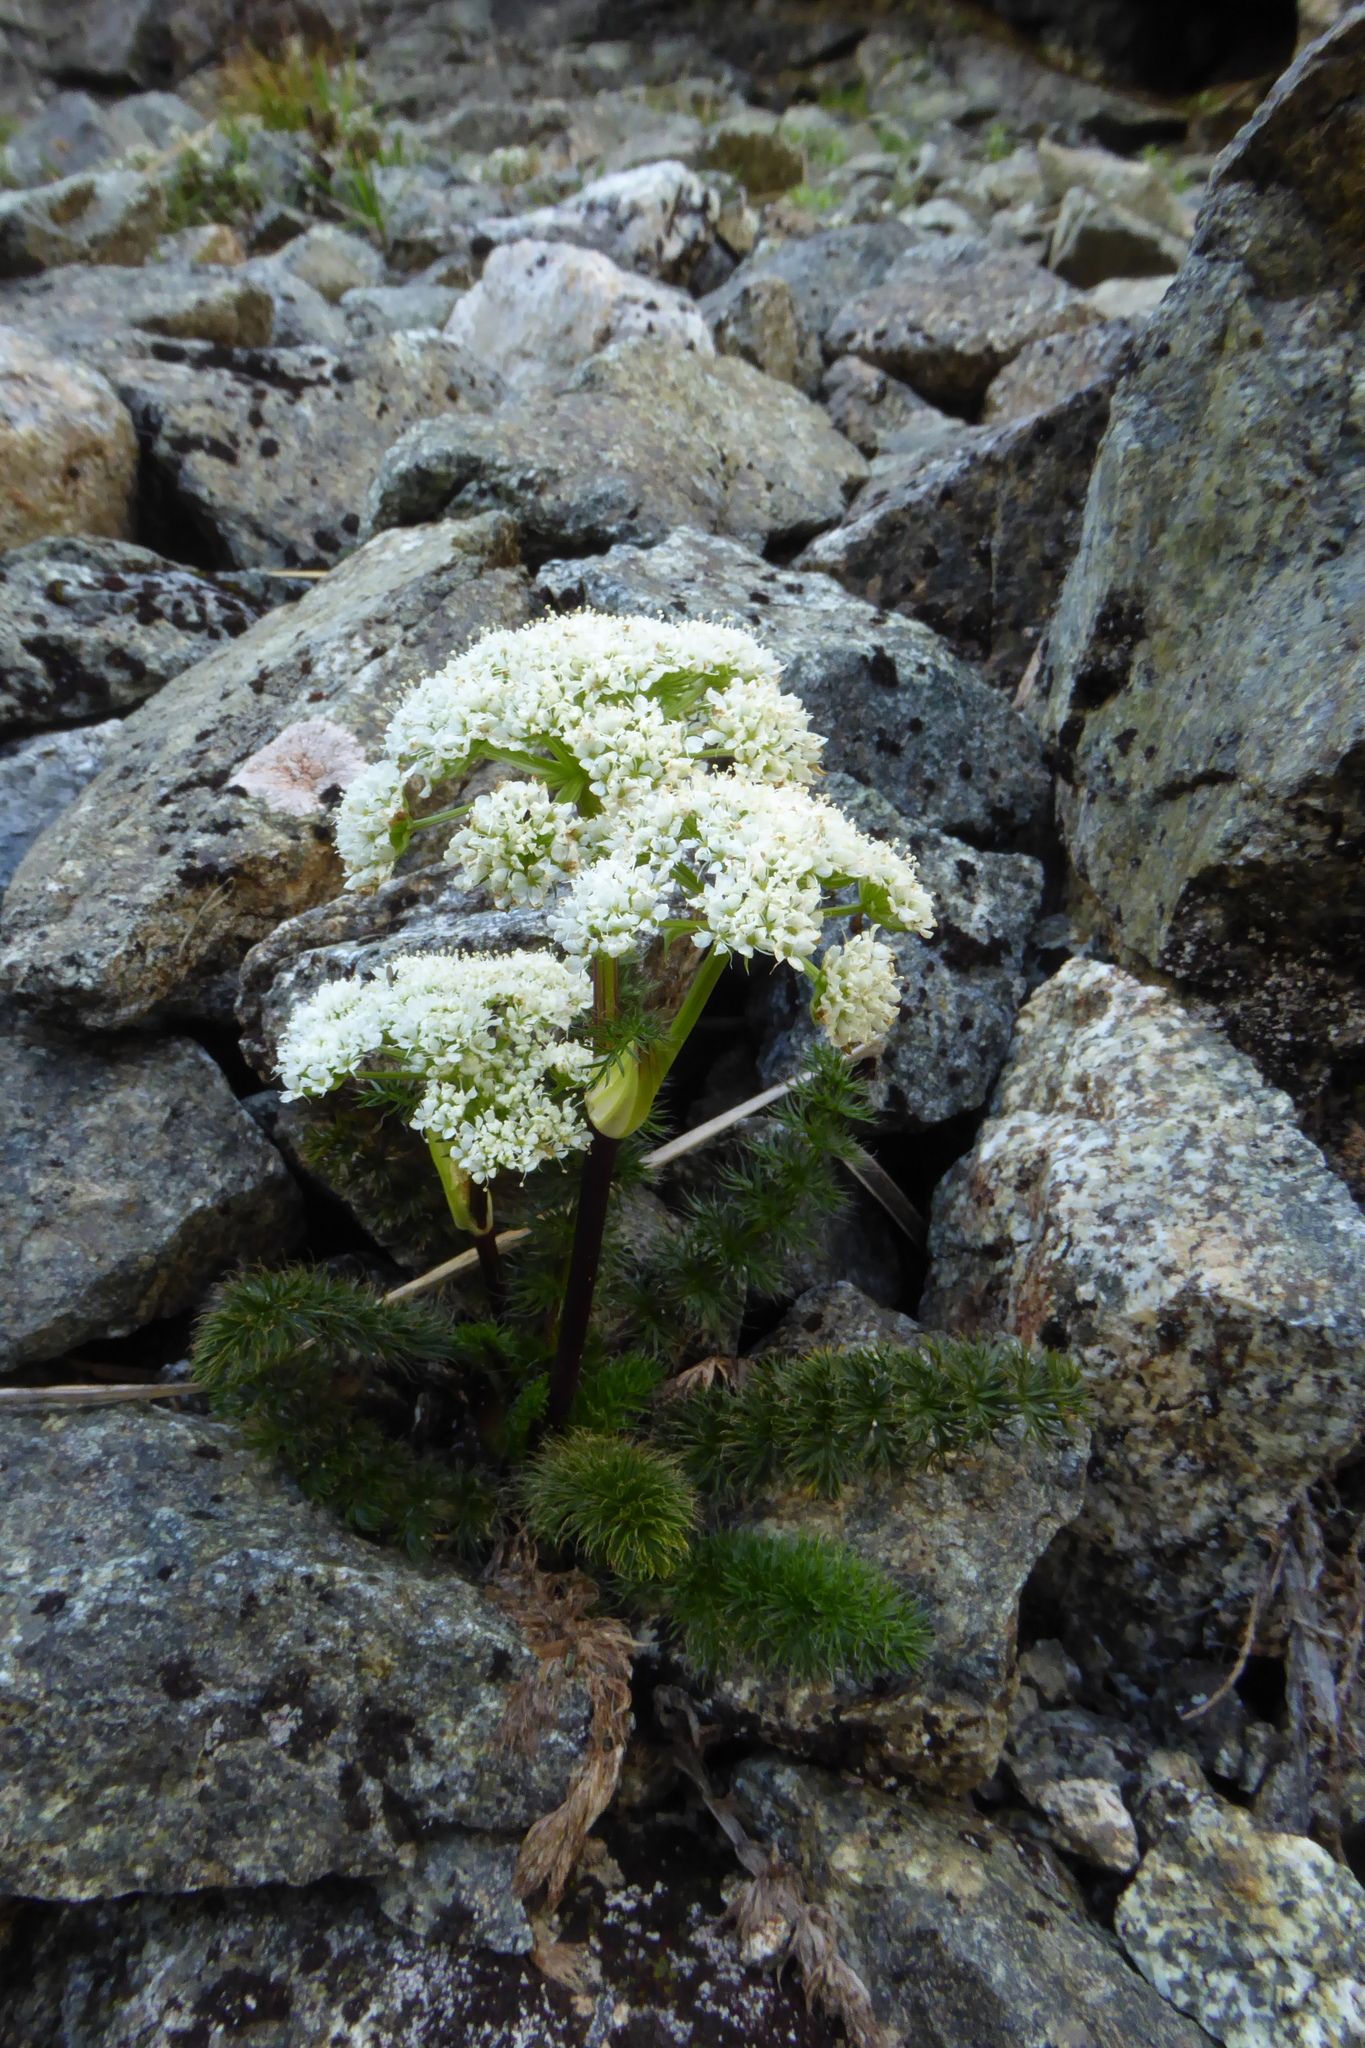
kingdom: Plantae
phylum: Tracheophyta
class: Magnoliopsida
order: Apiales
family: Apiaceae
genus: Anisotome
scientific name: Anisotome capillifolia
